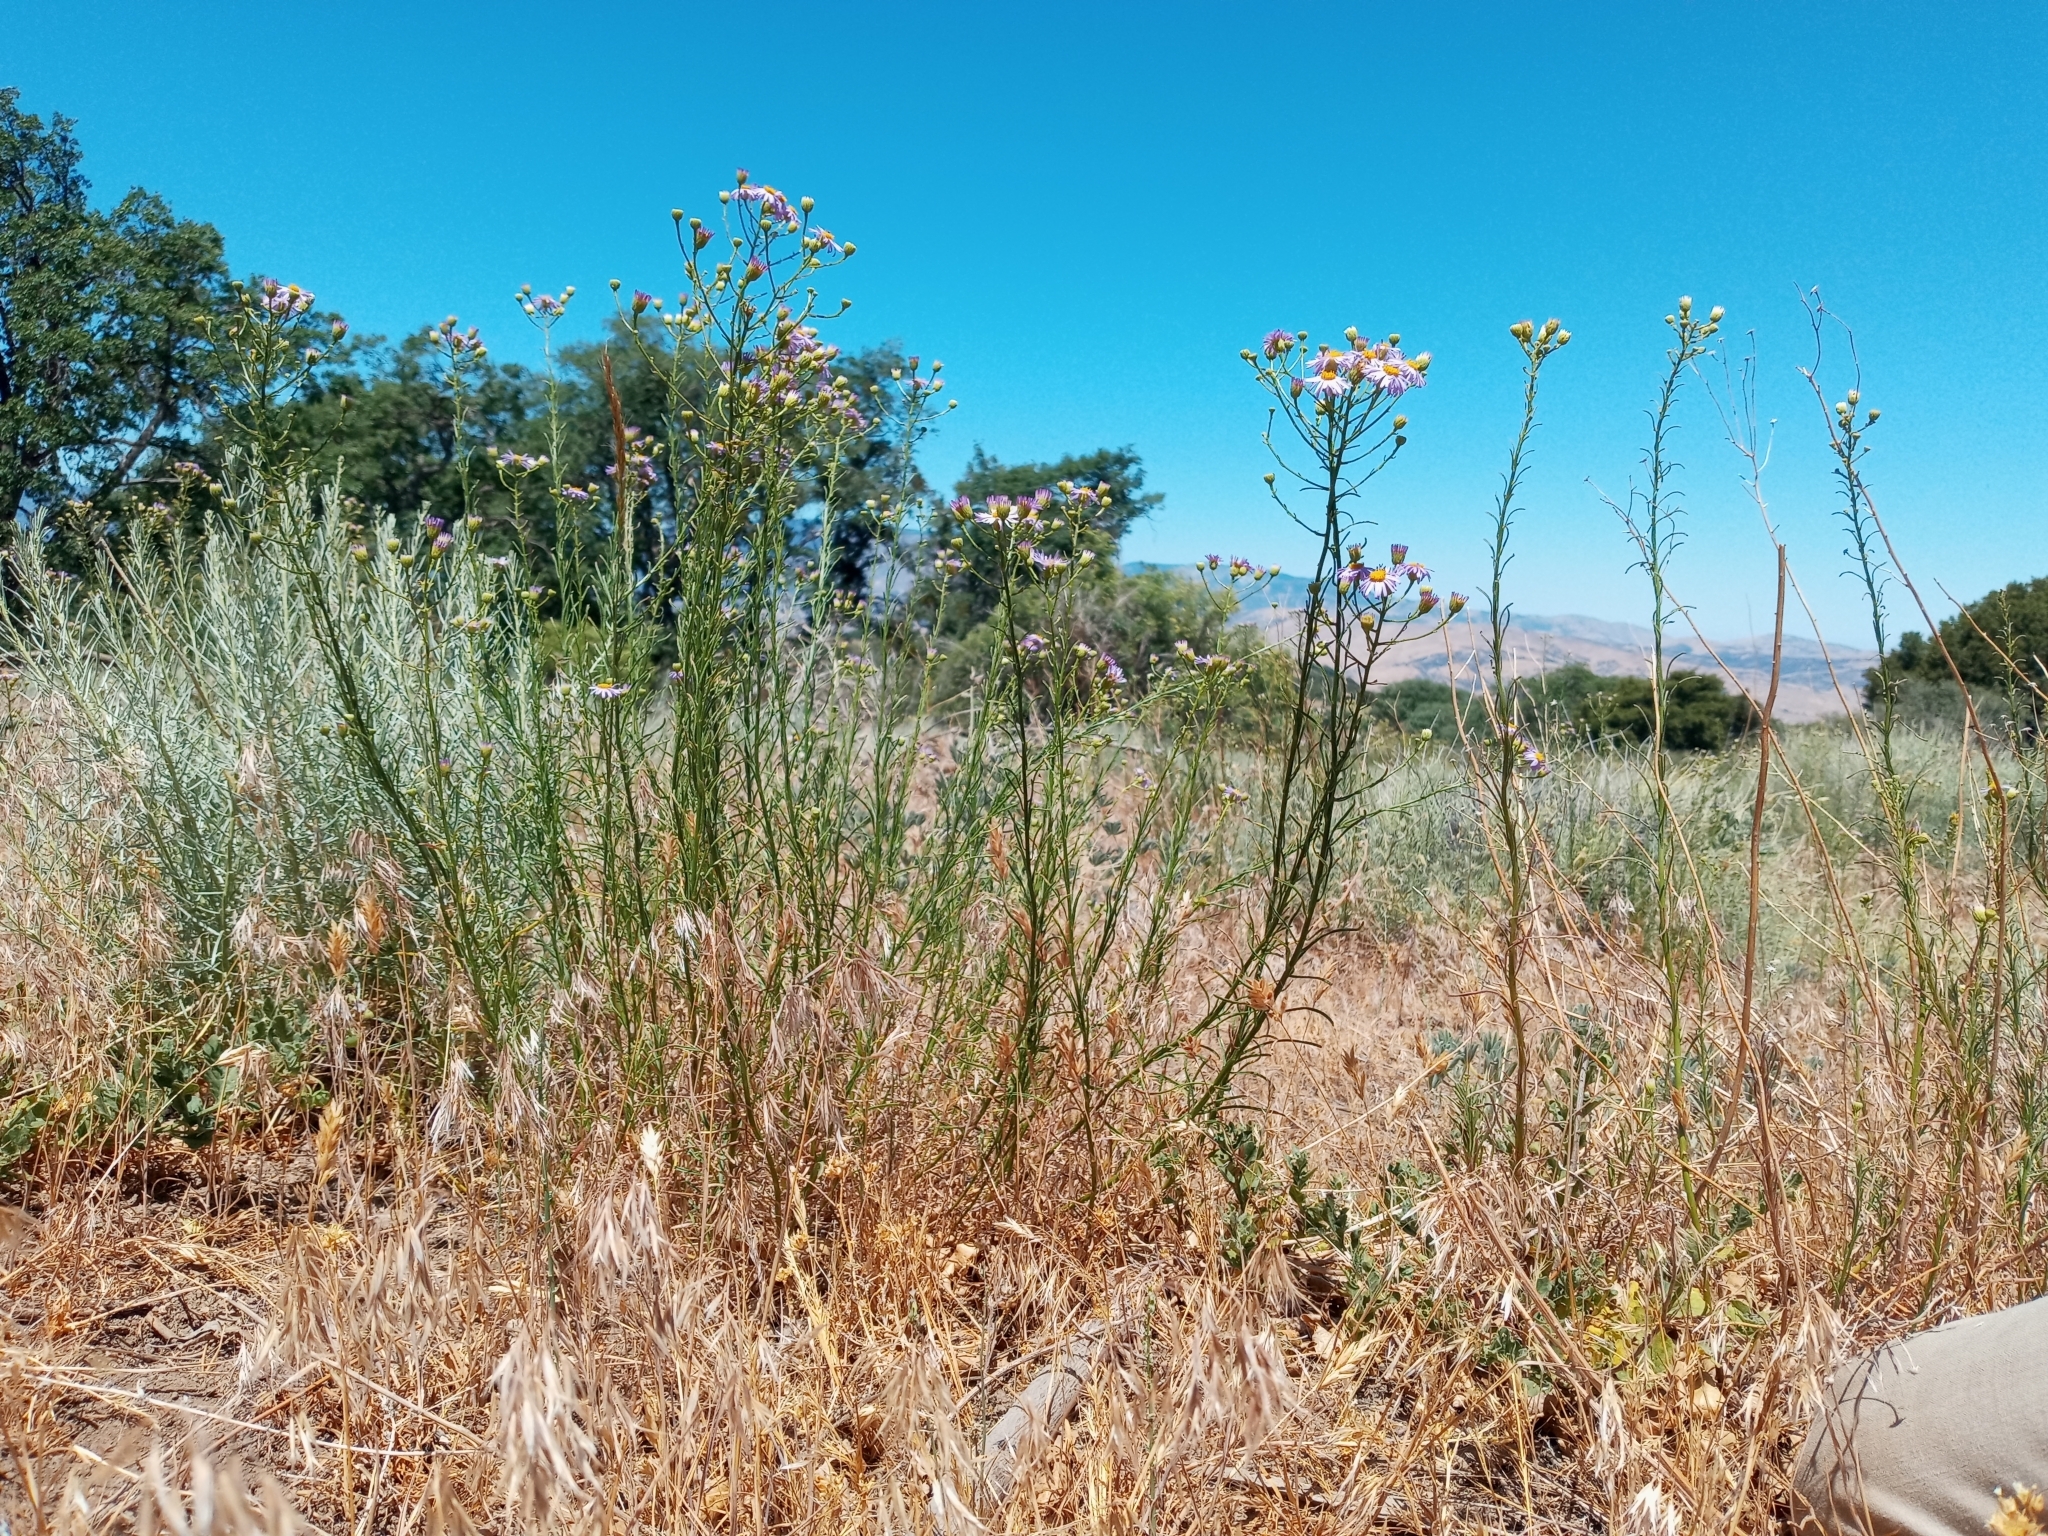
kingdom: Plantae
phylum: Tracheophyta
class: Magnoliopsida
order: Asterales
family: Asteraceae
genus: Erigeron
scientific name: Erigeron foliosus
